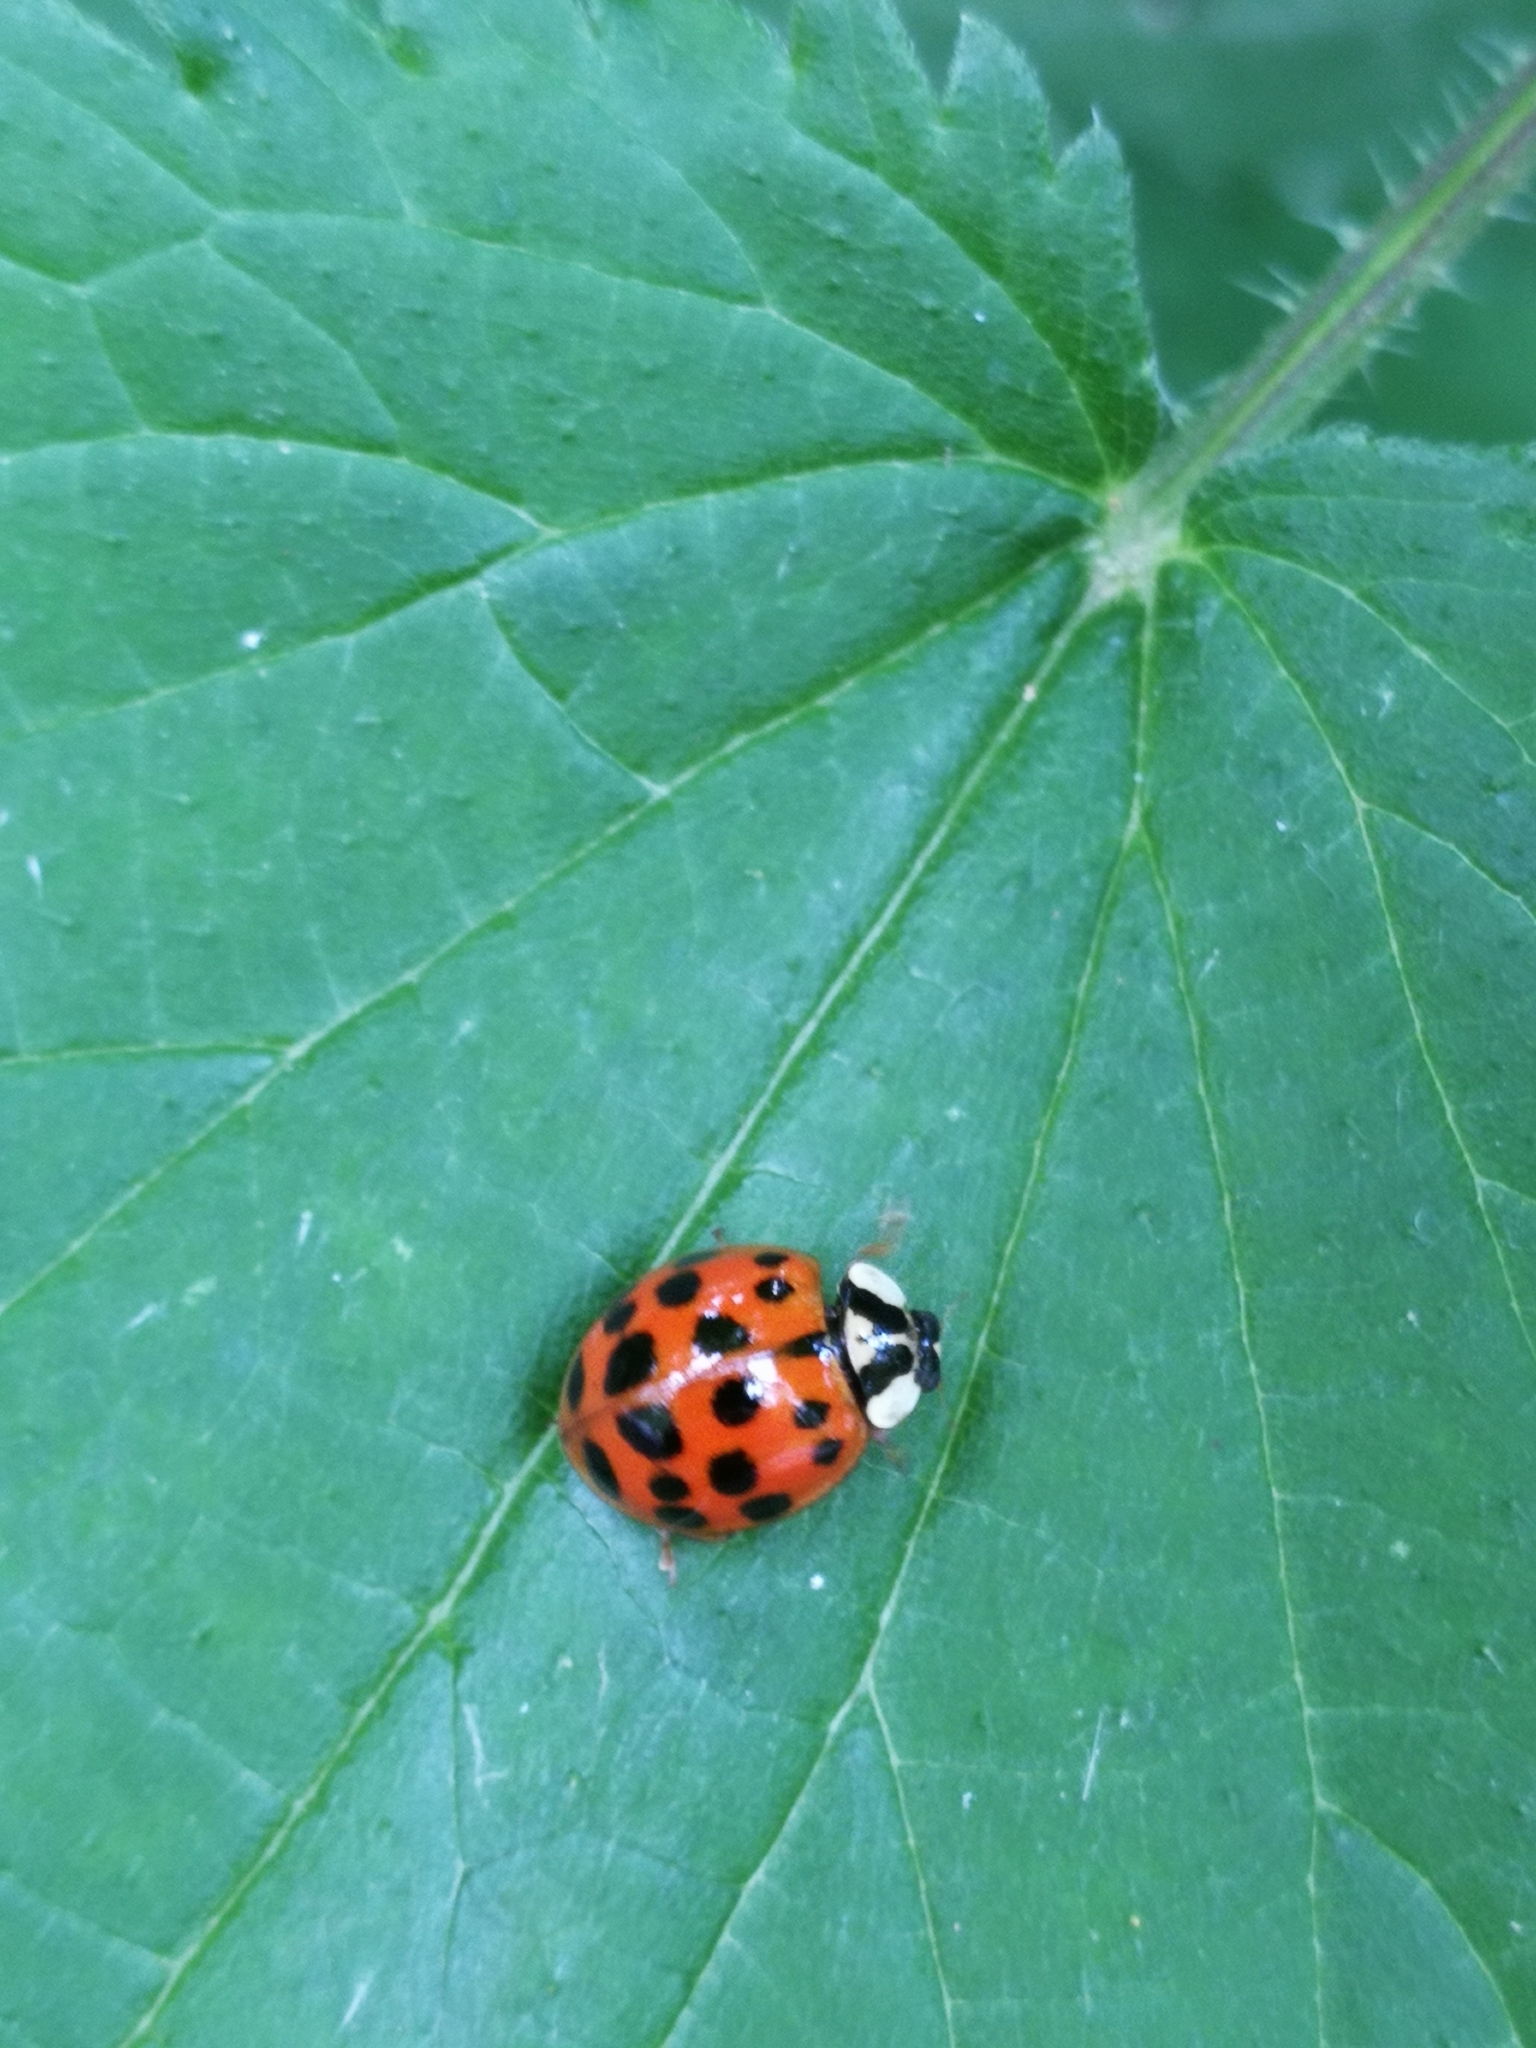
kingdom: Animalia
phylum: Arthropoda
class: Insecta
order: Coleoptera
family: Coccinellidae
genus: Harmonia
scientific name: Harmonia axyridis
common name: Harlequin ladybird
